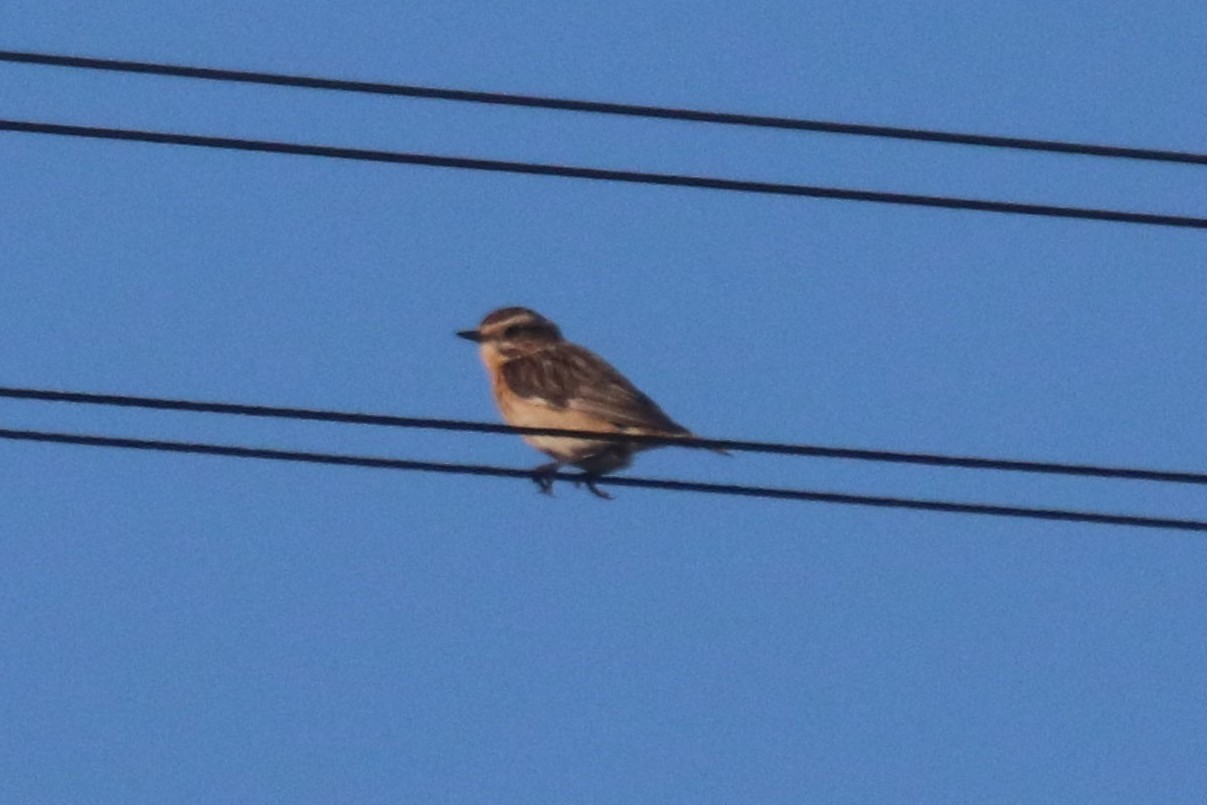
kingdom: Animalia
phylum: Chordata
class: Aves
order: Passeriformes
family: Muscicapidae
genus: Saxicola
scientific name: Saxicola rubetra
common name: Whinchat
